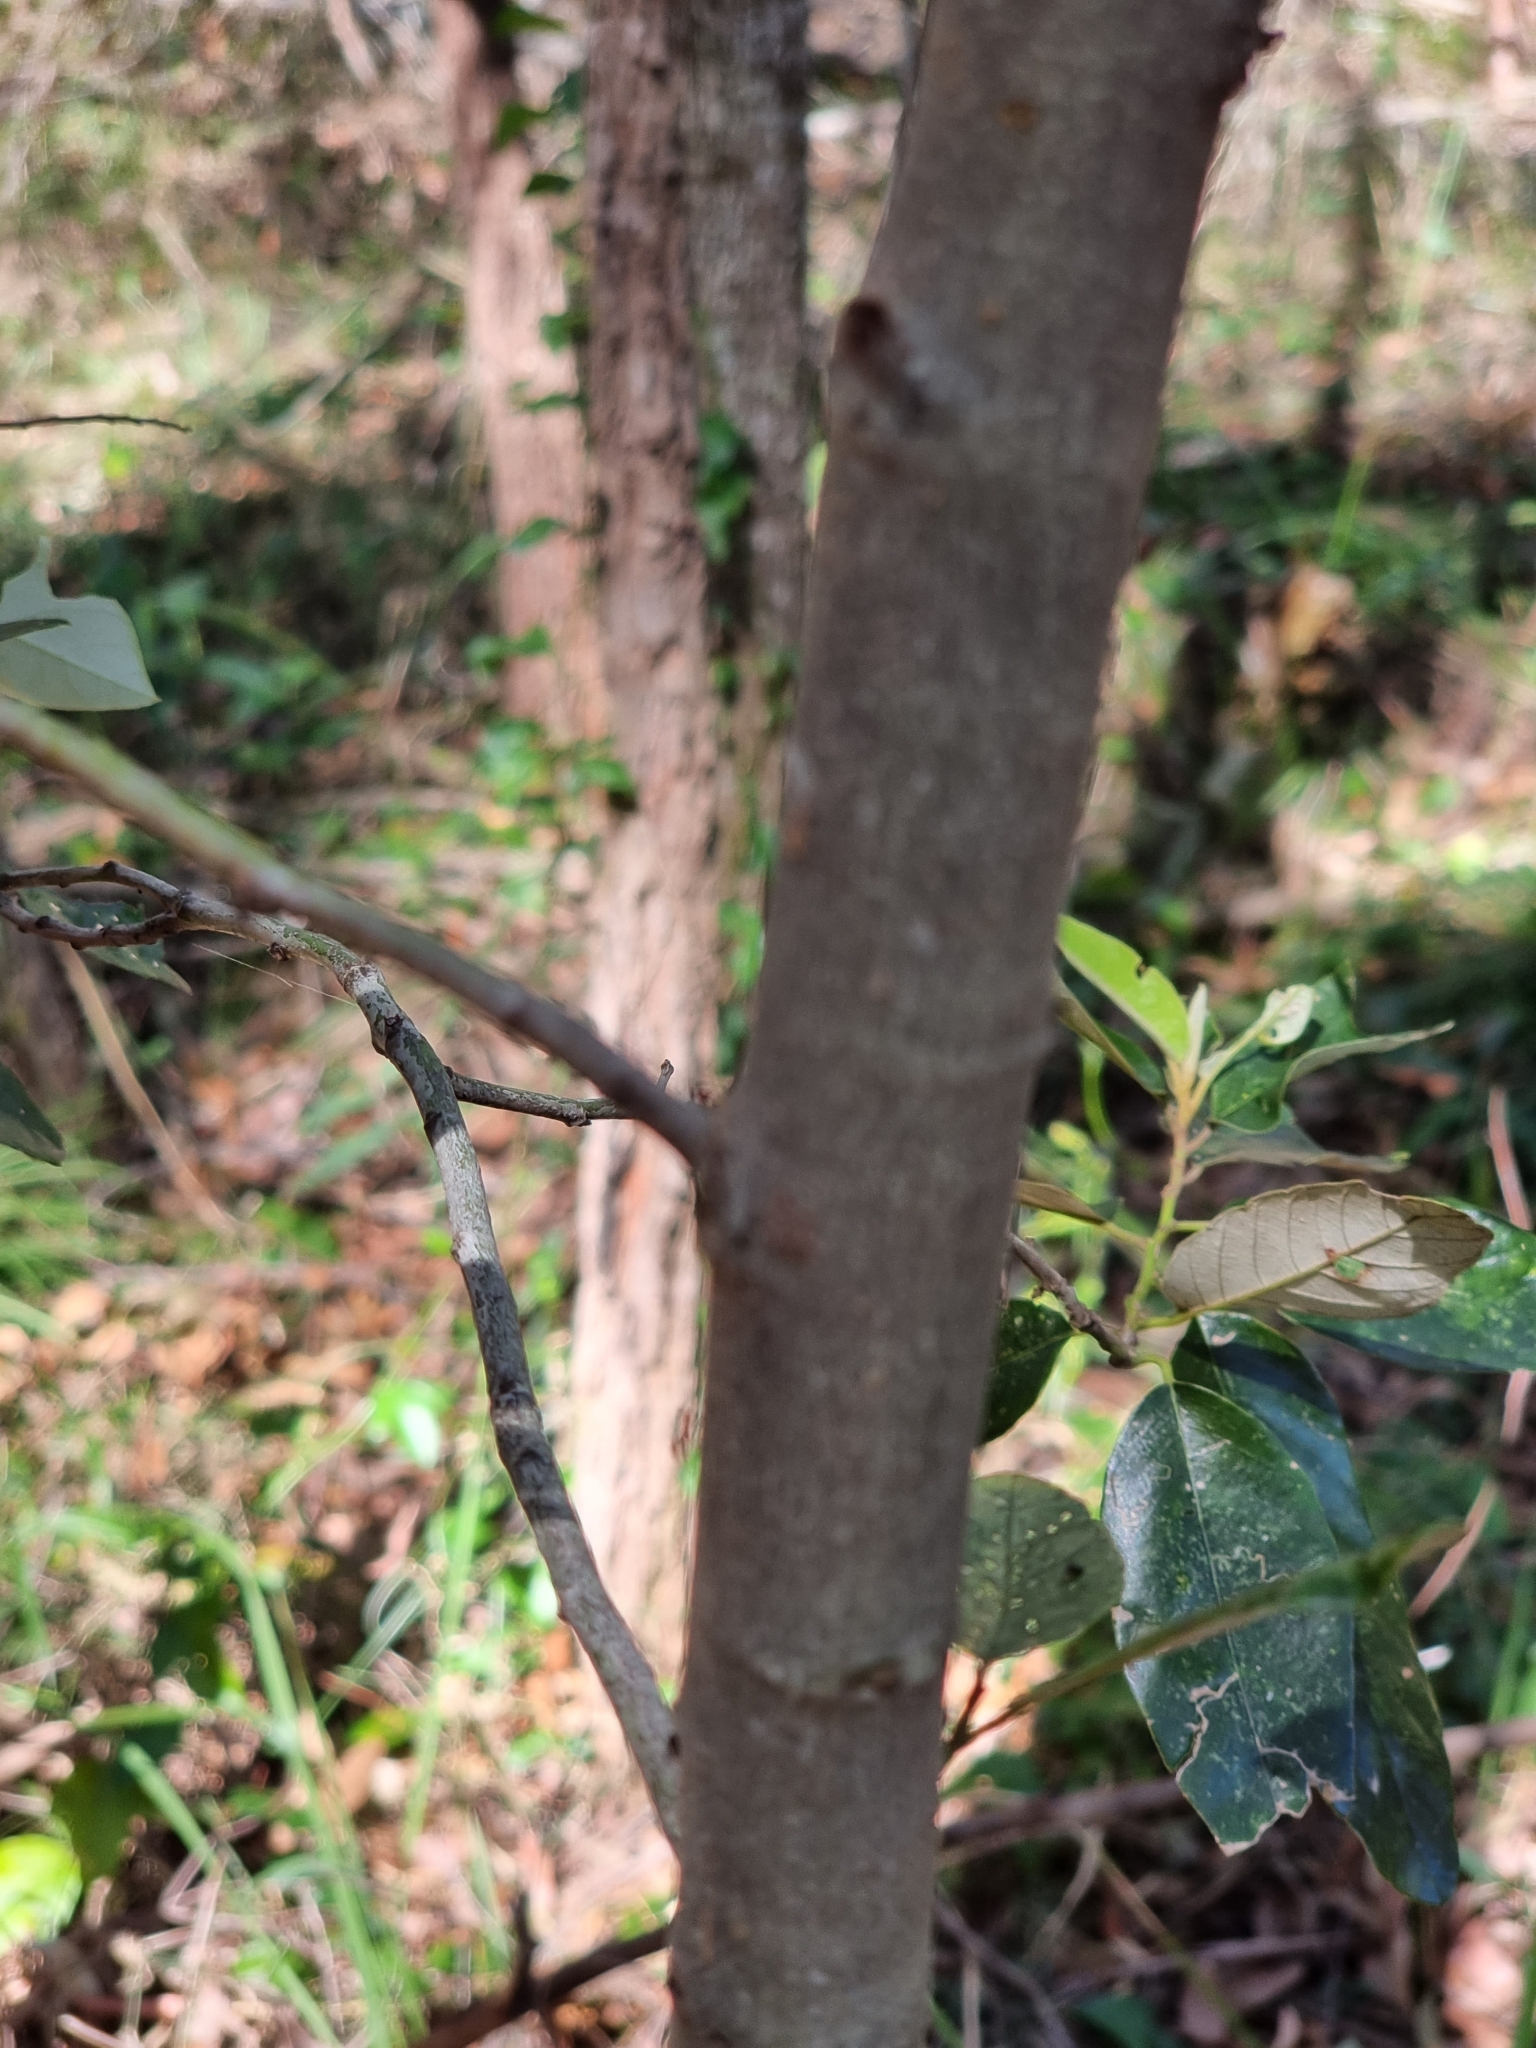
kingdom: Plantae
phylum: Tracheophyta
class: Magnoliopsida
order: Rosales
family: Rhamnaceae
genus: Alphitonia
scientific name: Alphitonia excelsa
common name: Red ash
